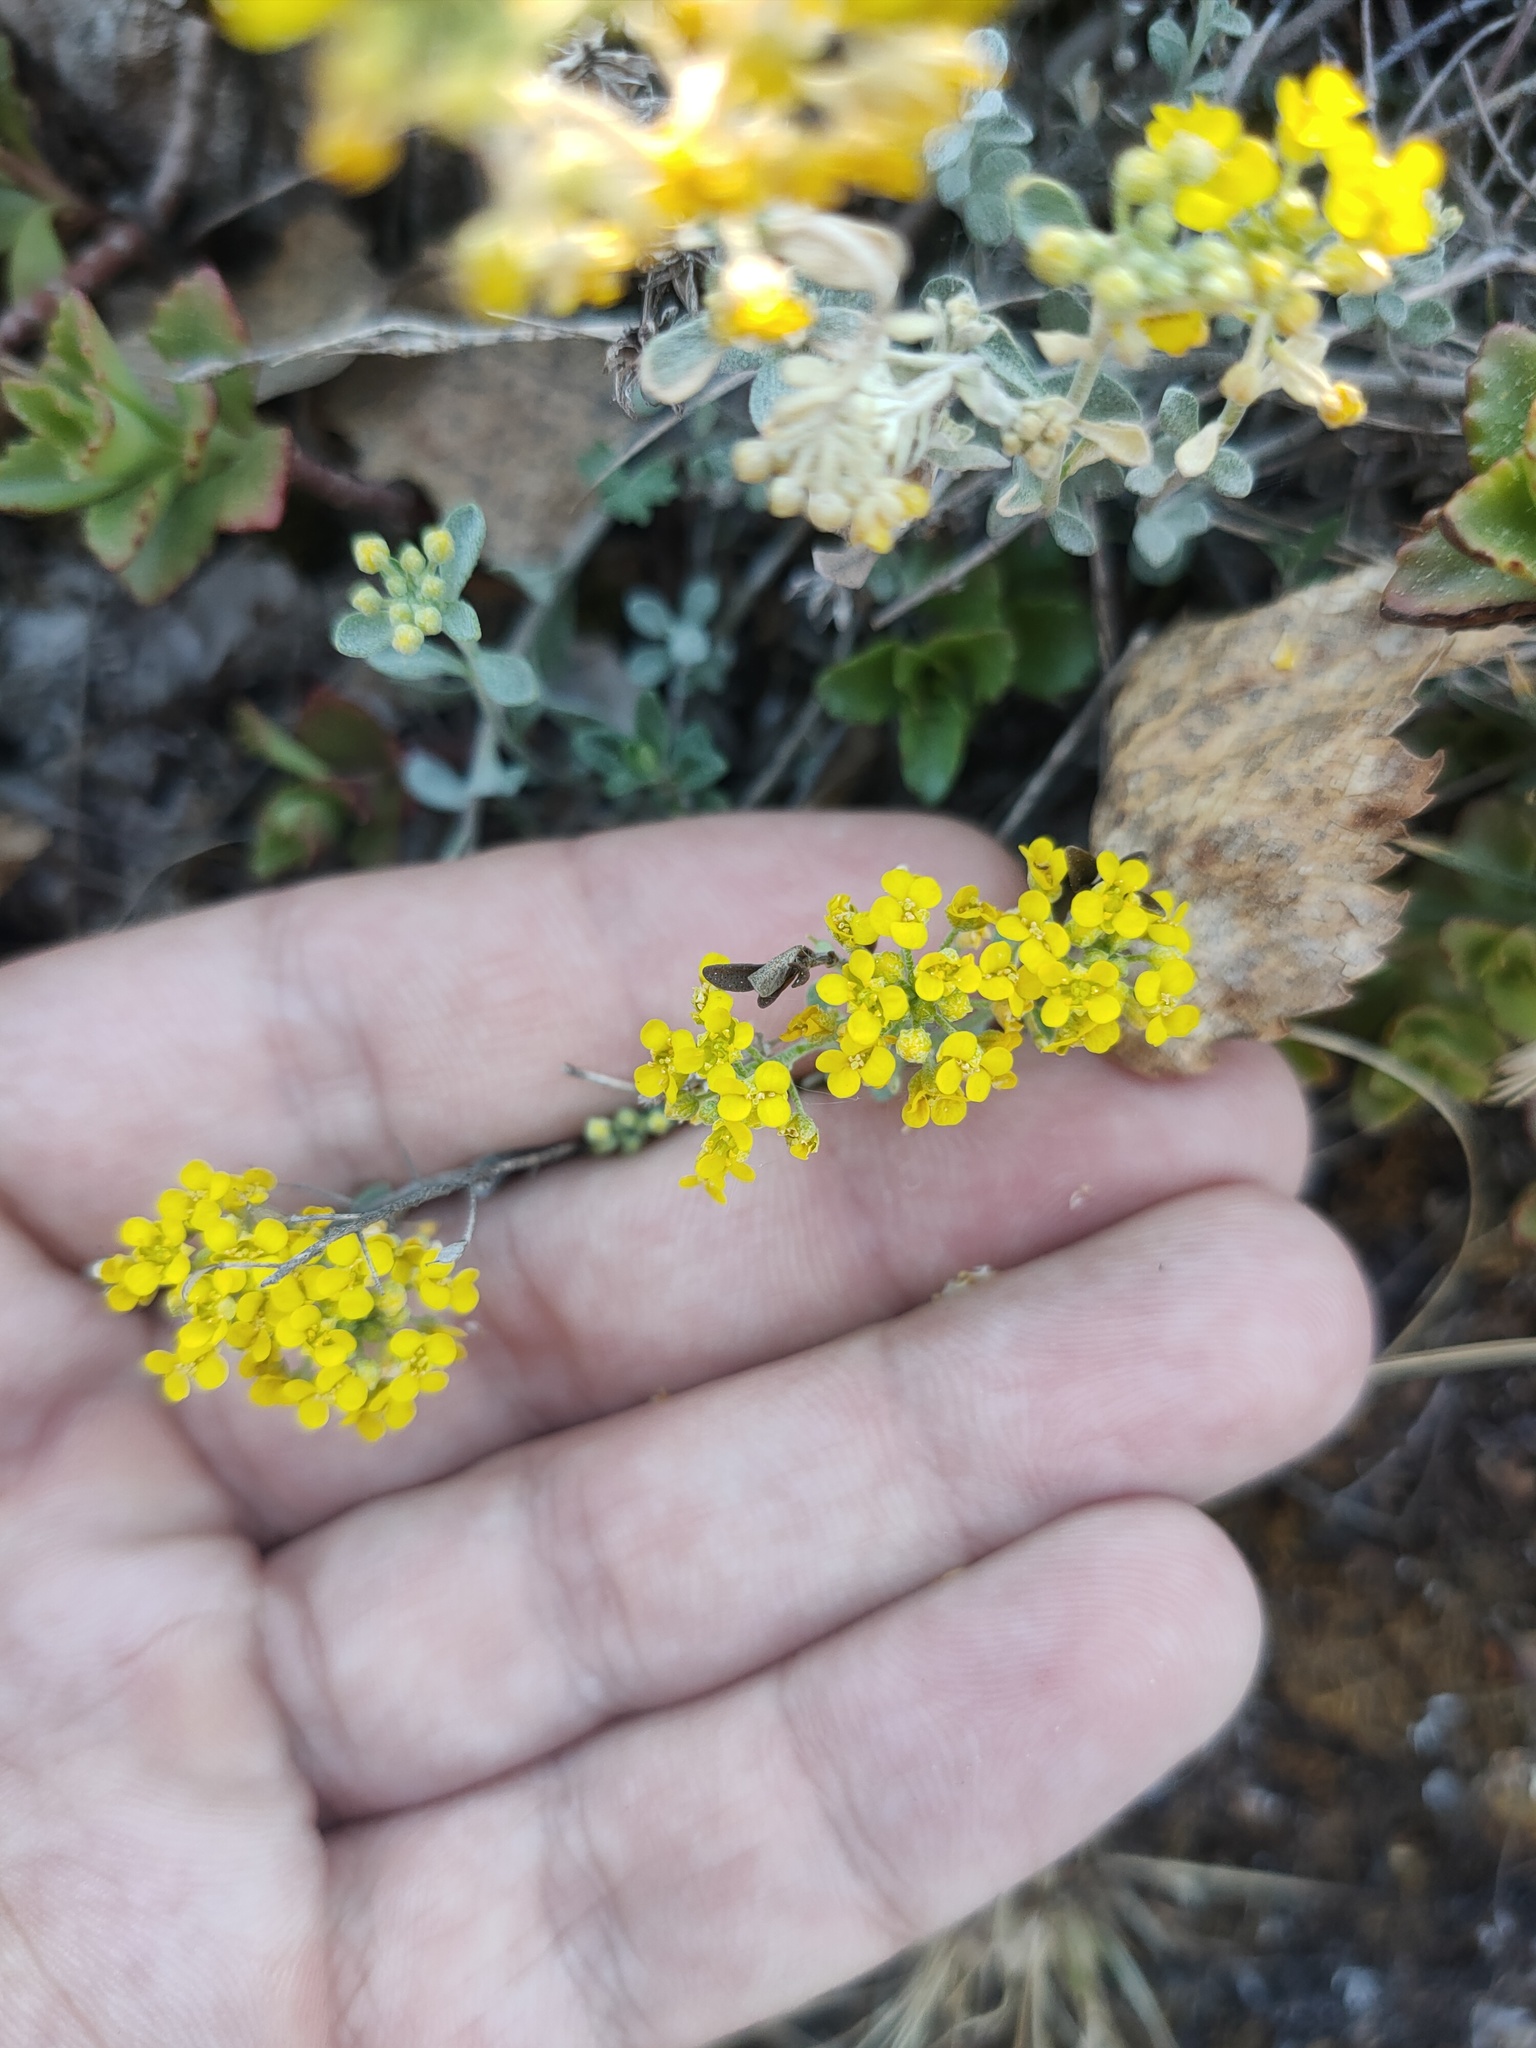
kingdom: Plantae
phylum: Tracheophyta
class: Magnoliopsida
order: Brassicales
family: Brassicaceae
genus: Odontarrhena
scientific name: Odontarrhena obovata
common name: American alyssum
